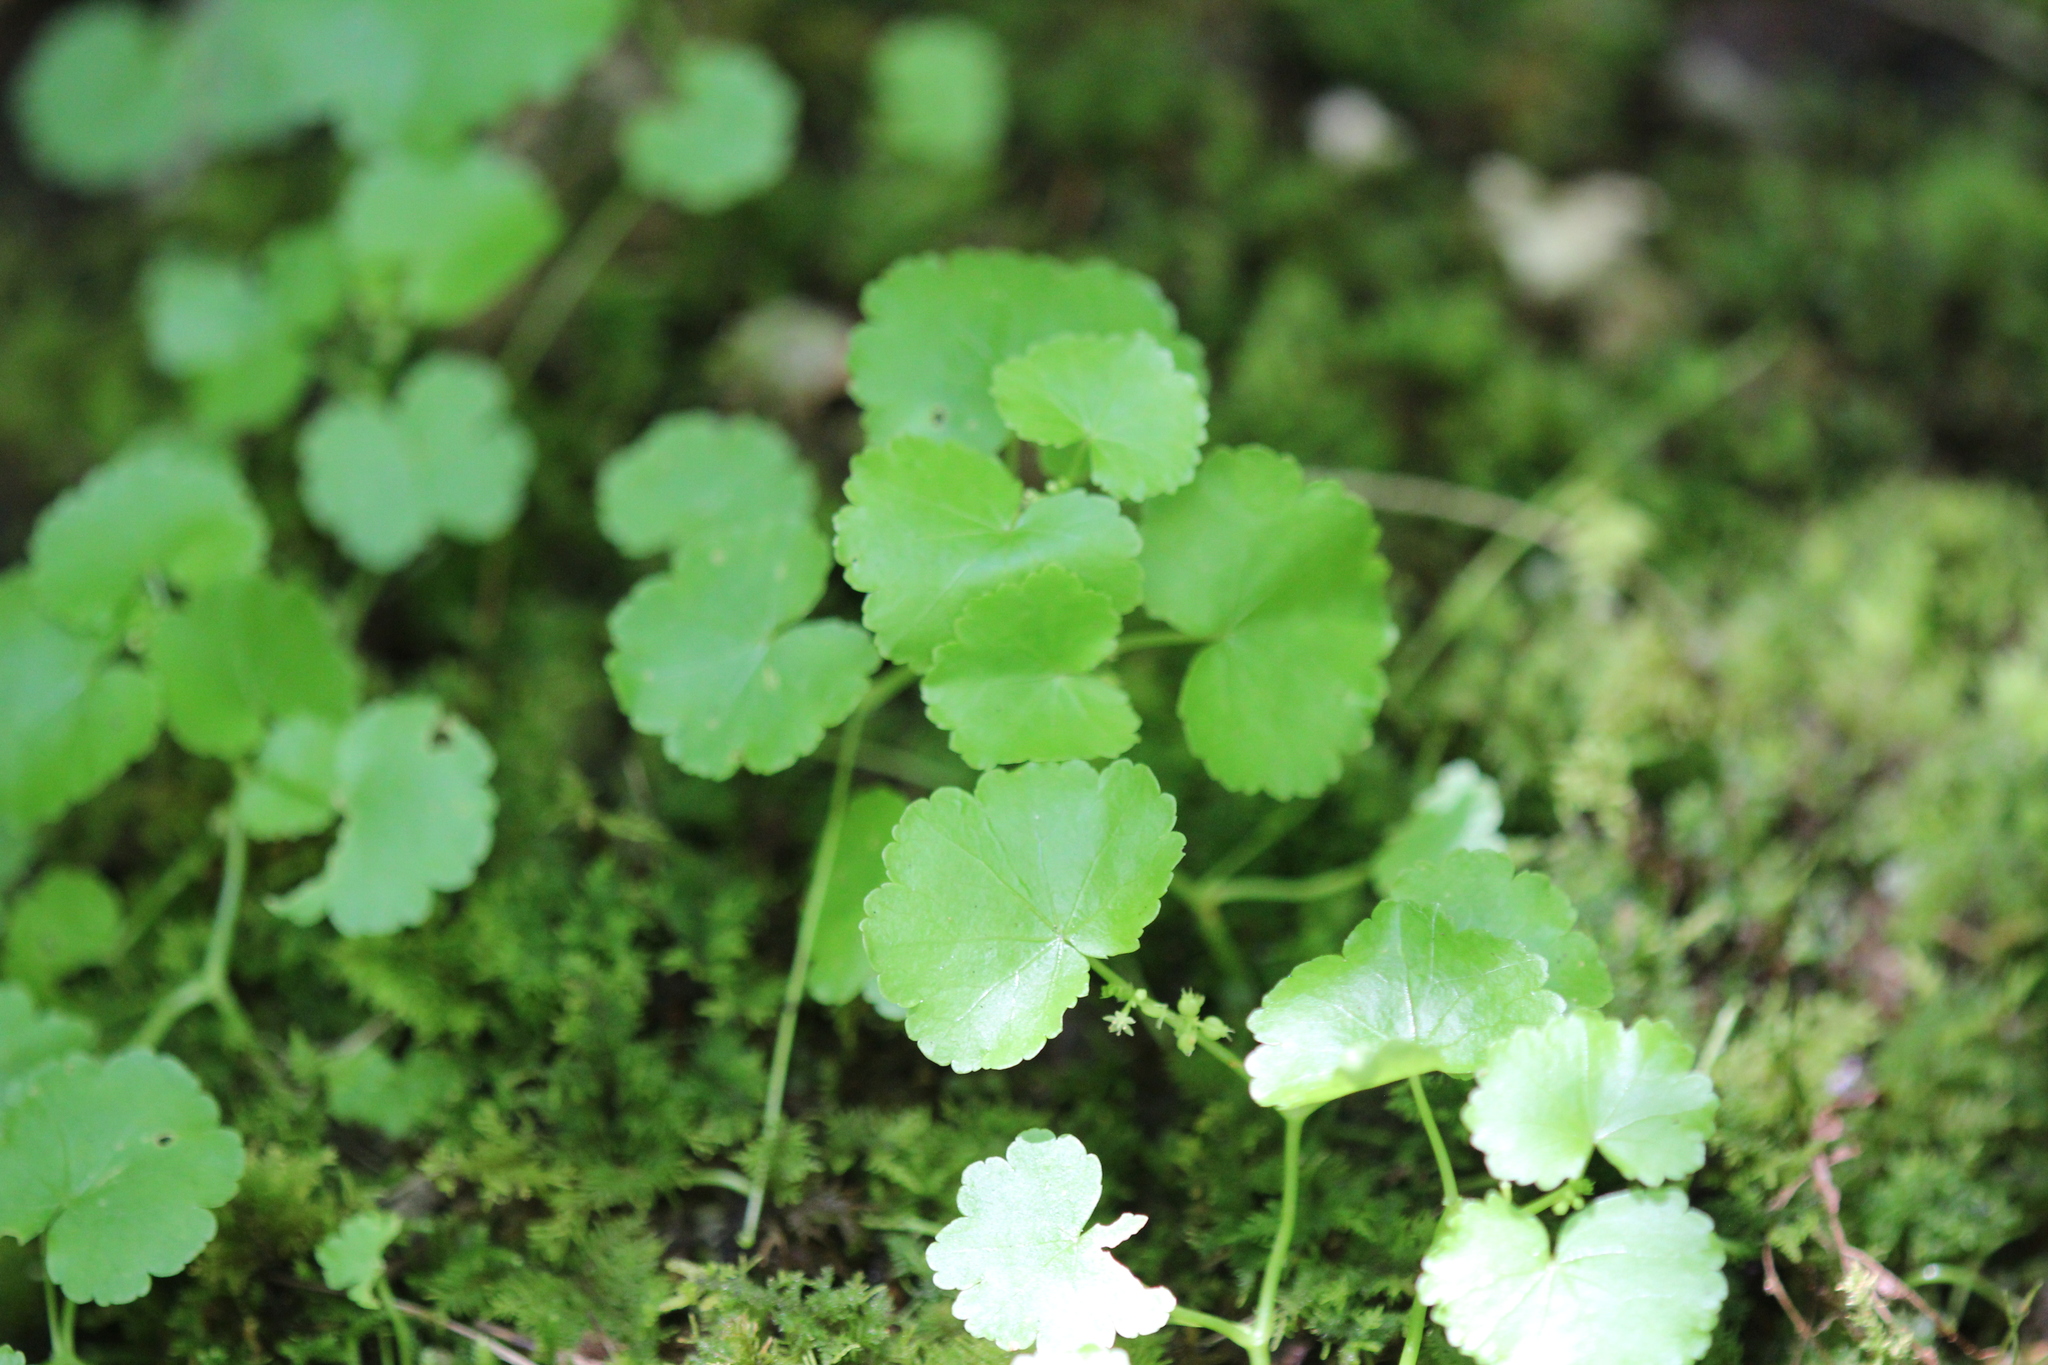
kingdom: Plantae
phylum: Tracheophyta
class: Magnoliopsida
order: Apiales
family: Araliaceae
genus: Hydrocotyle
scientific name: Hydrocotyle americana
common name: American water-pennywort
